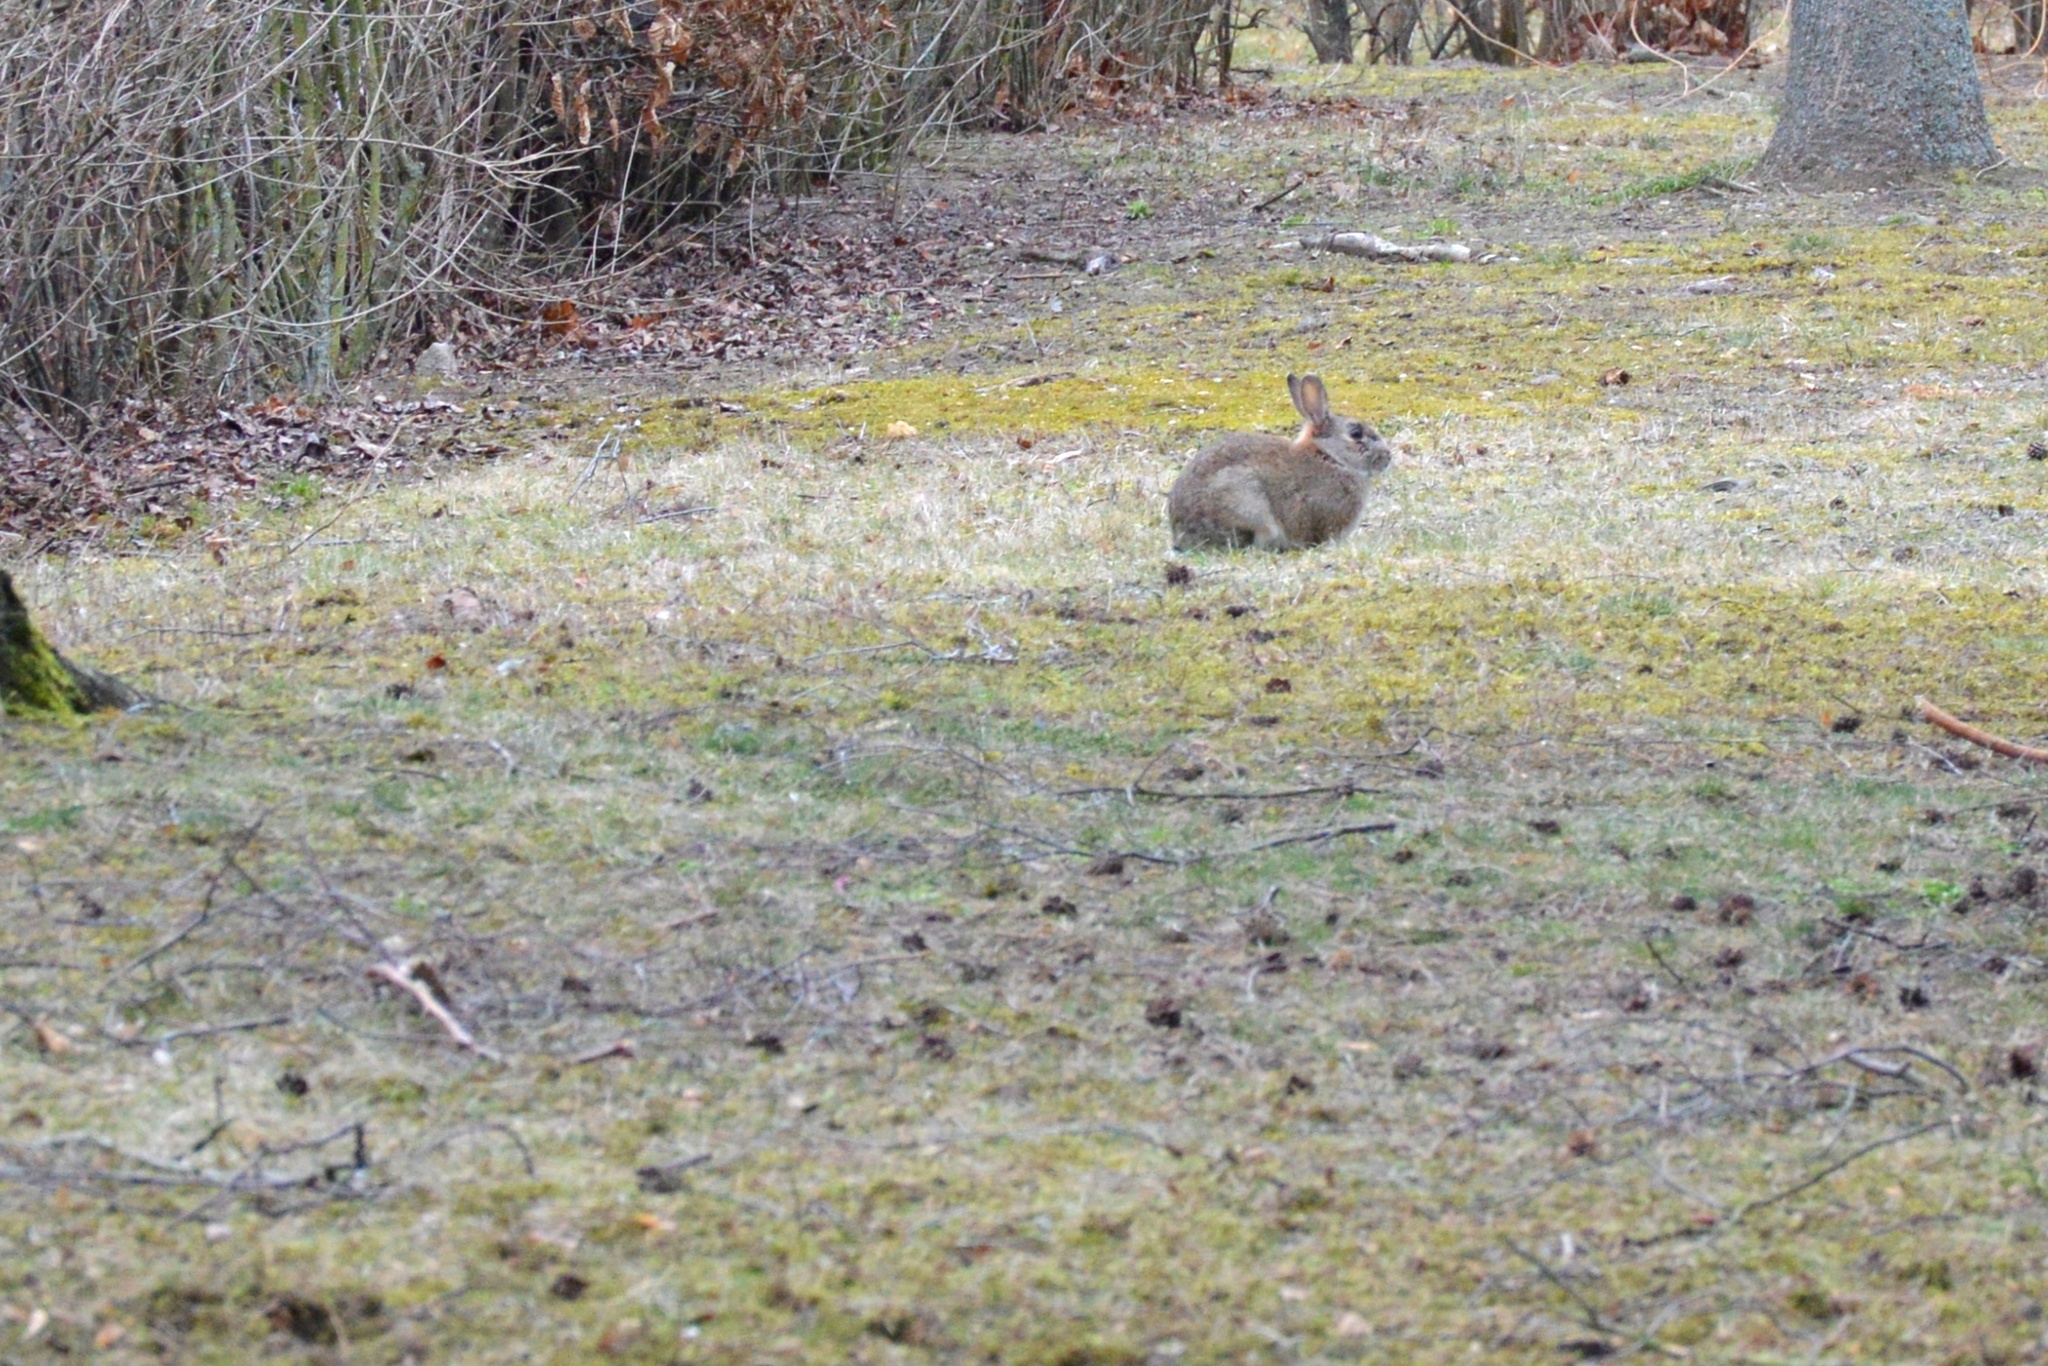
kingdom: Animalia
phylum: Chordata
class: Mammalia
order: Lagomorpha
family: Leporidae
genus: Oryctolagus
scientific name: Oryctolagus cuniculus
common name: European rabbit
